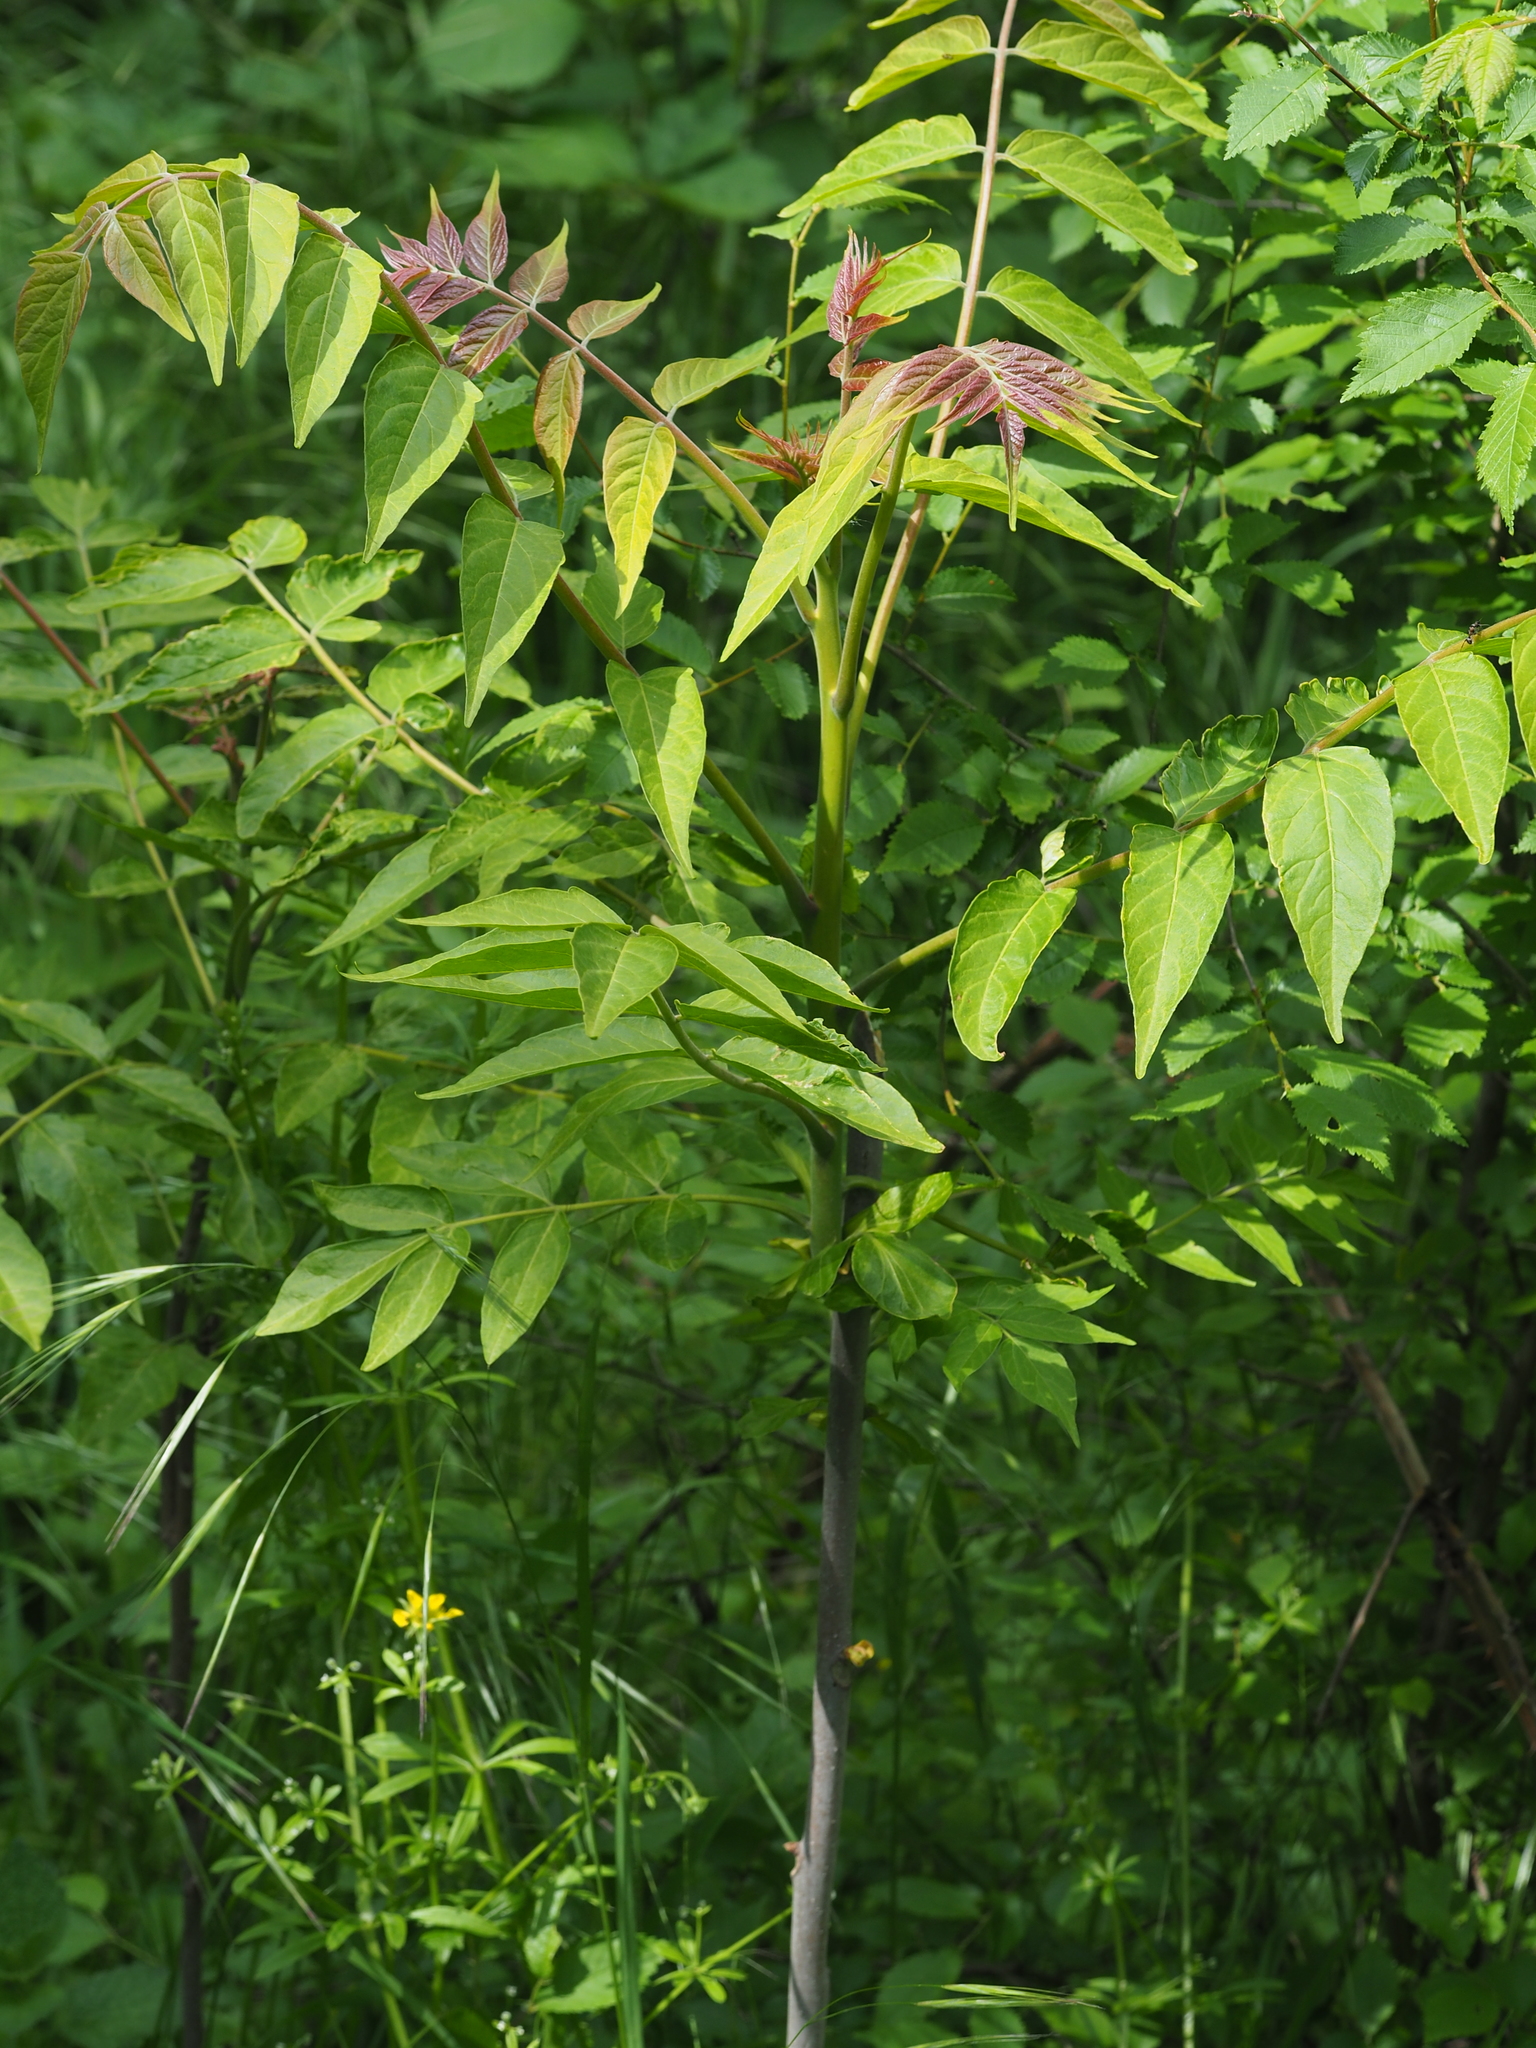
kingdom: Plantae
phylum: Tracheophyta
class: Magnoliopsida
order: Sapindales
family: Simaroubaceae
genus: Ailanthus
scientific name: Ailanthus altissima
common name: Tree-of-heaven
